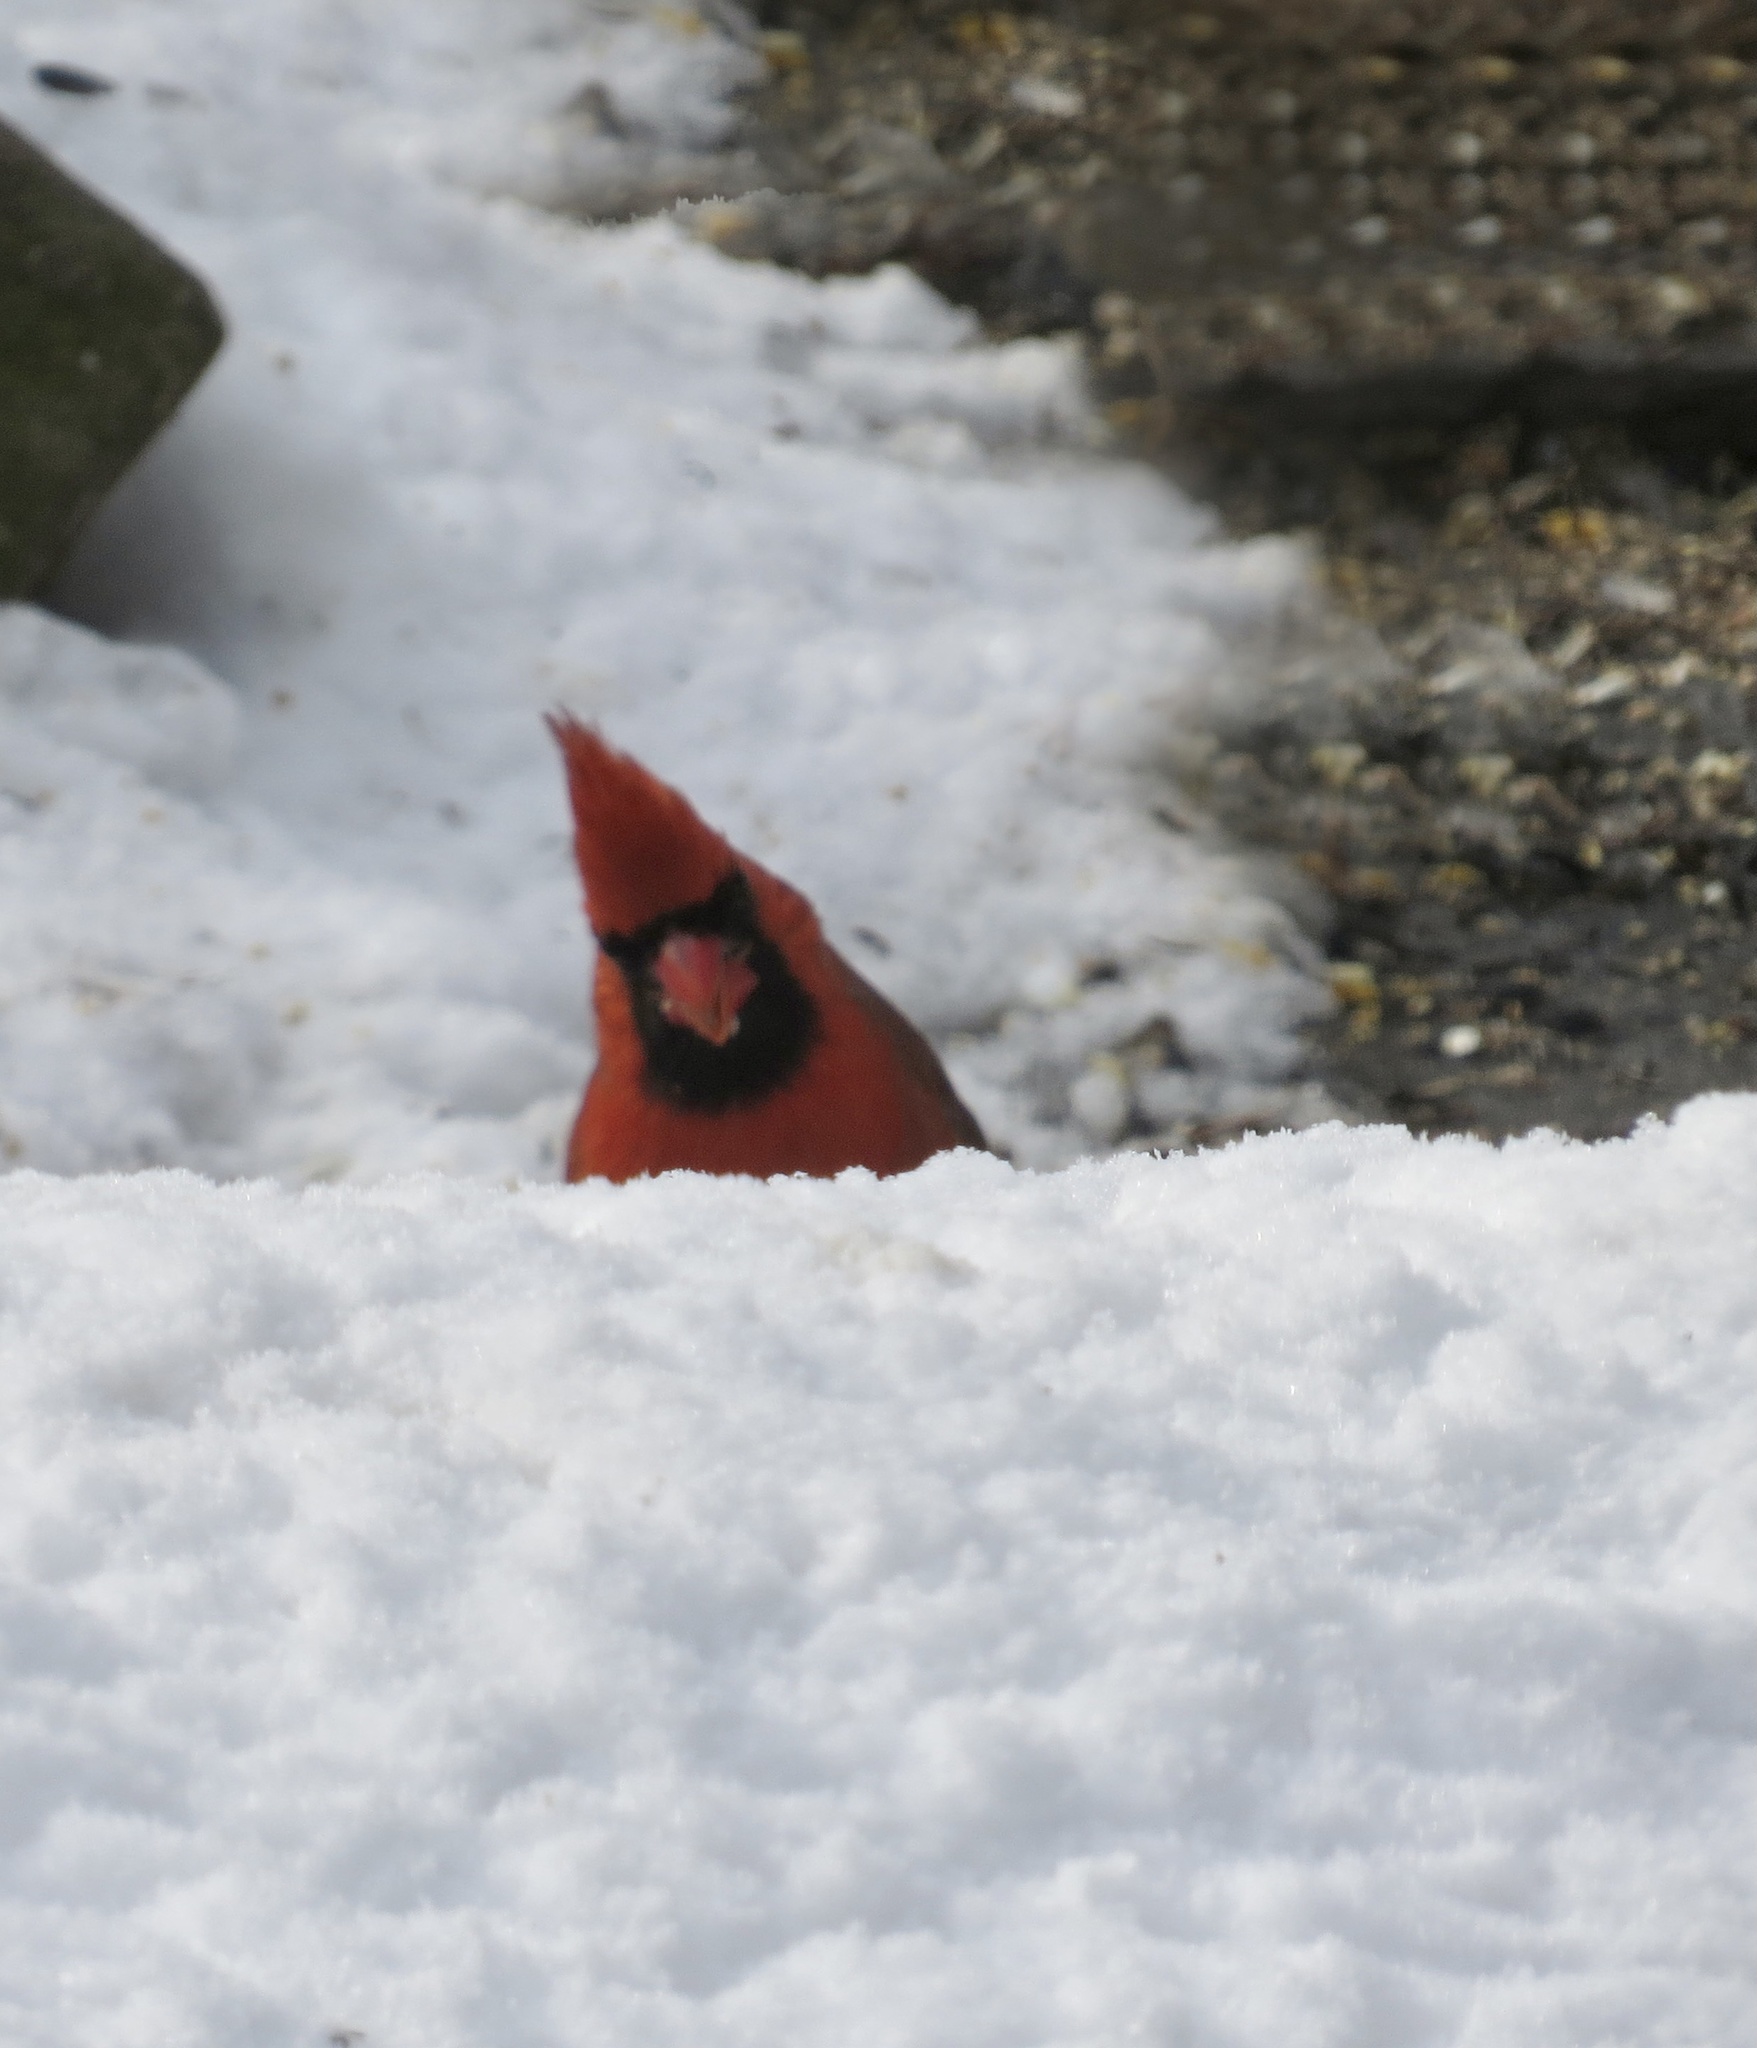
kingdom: Animalia
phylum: Chordata
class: Aves
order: Passeriformes
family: Cardinalidae
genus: Cardinalis
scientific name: Cardinalis cardinalis
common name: Northern cardinal
